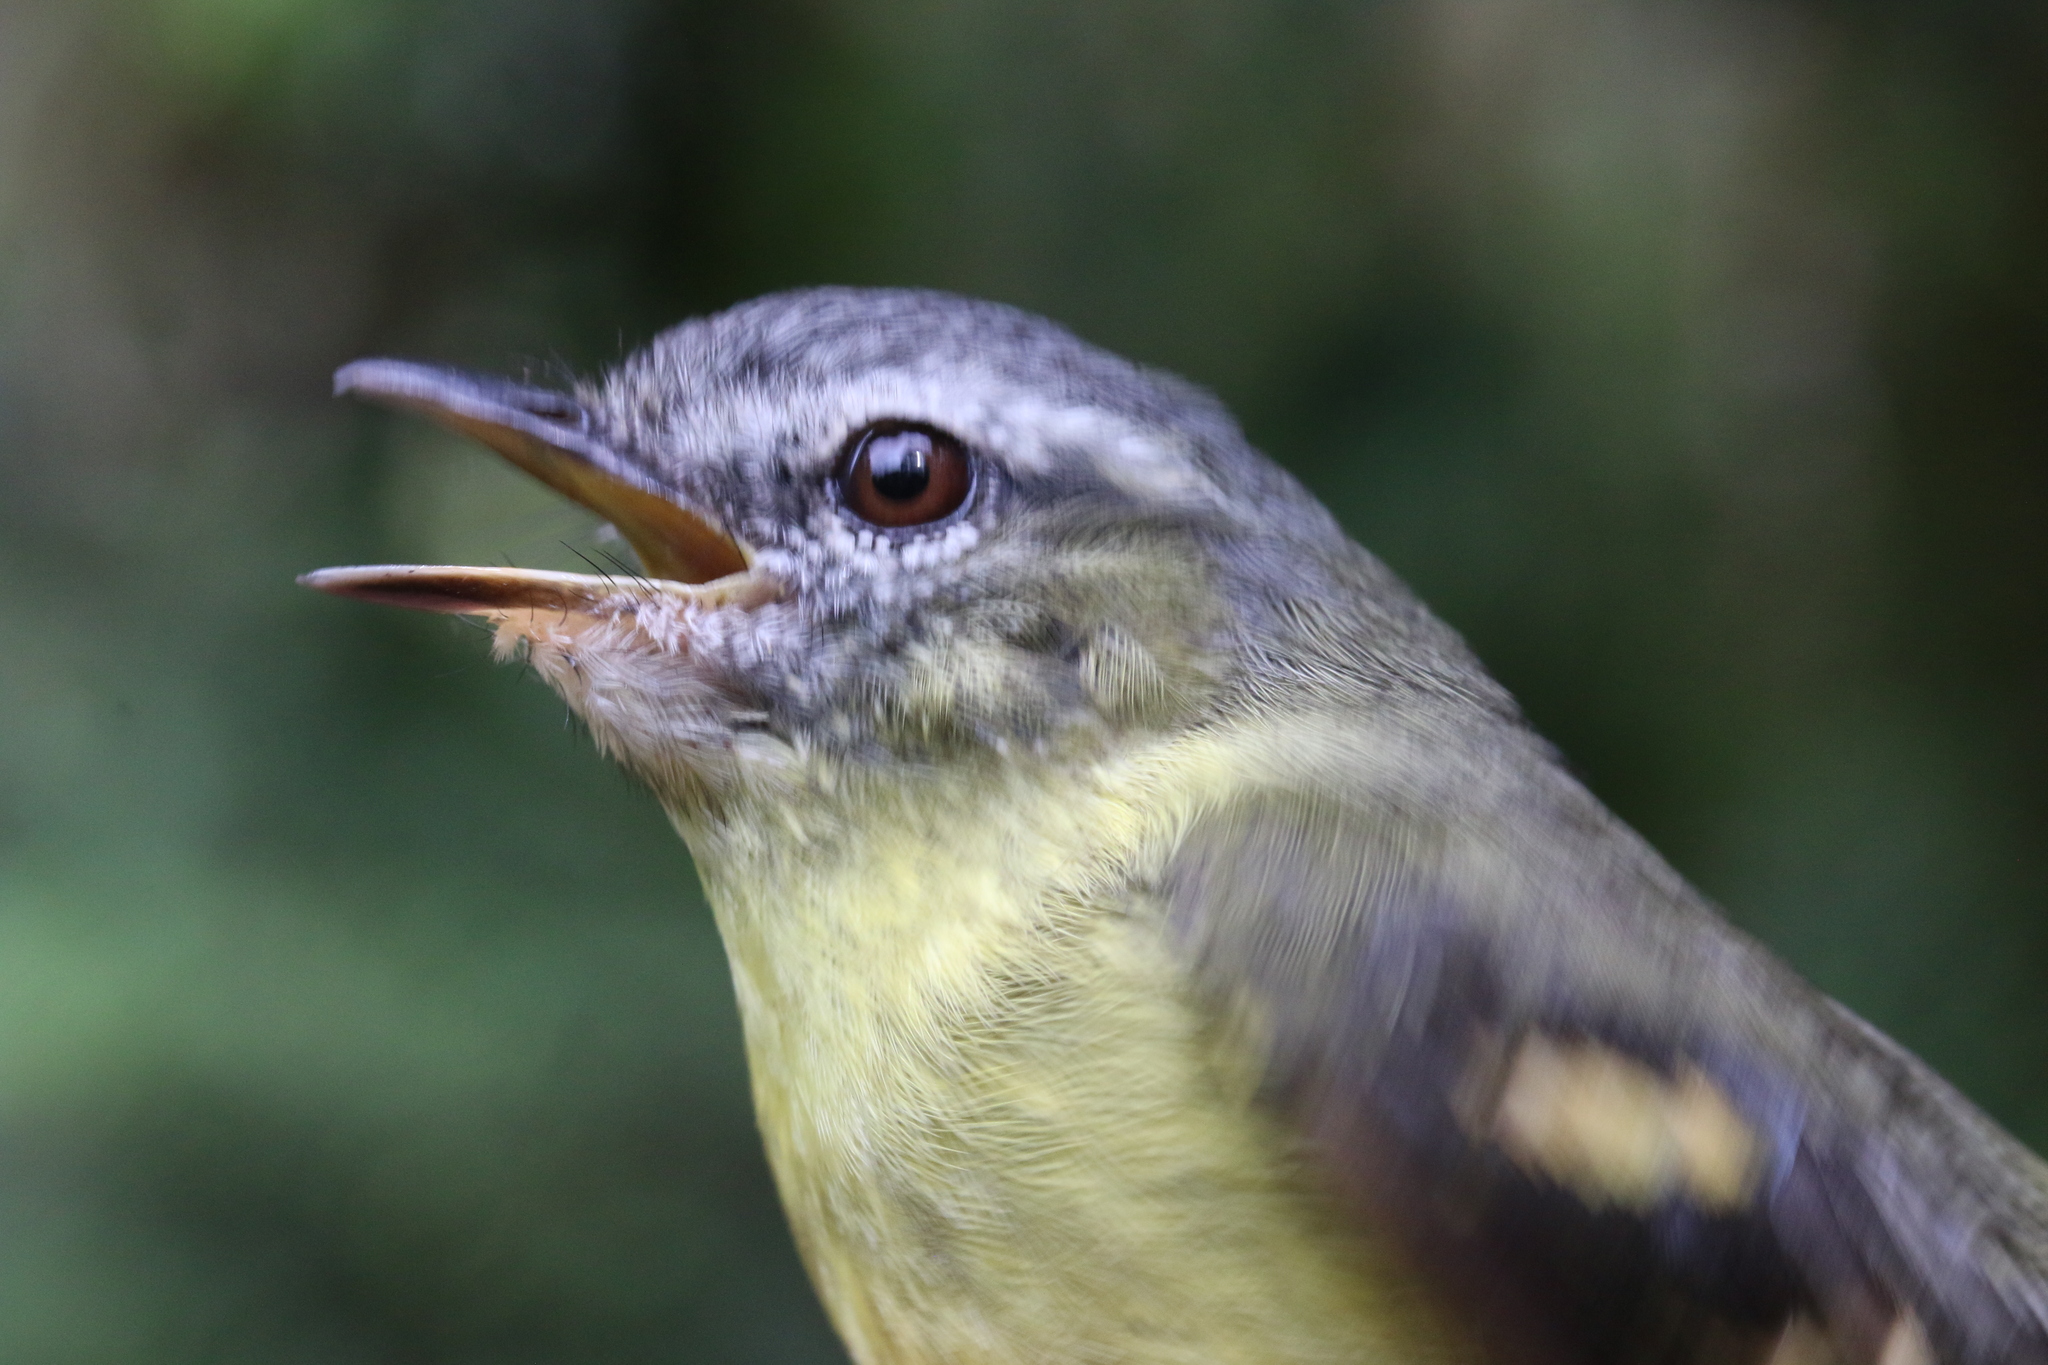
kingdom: Animalia
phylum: Chordata
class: Aves
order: Passeriformes
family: Tyrannidae
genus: Mecocerculus
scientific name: Mecocerculus minor
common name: Sulphur-bellied tyrannulet
